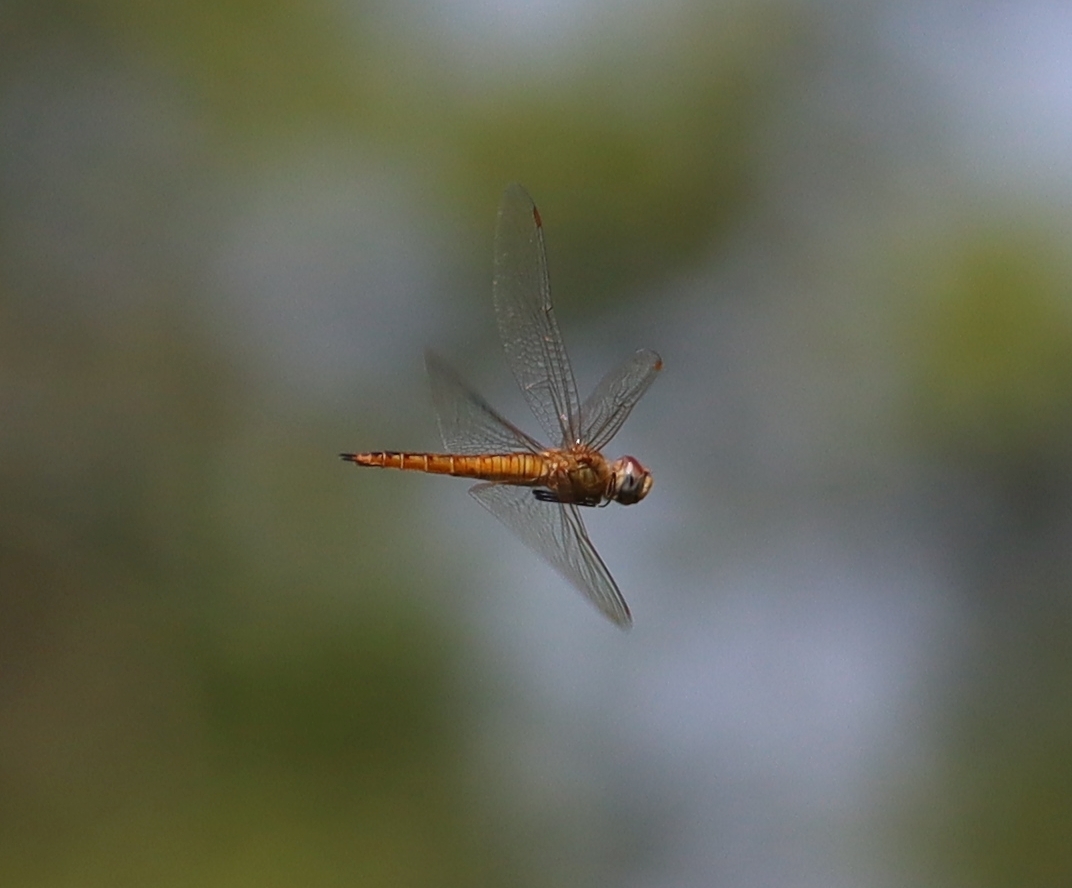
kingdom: Animalia
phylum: Arthropoda
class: Insecta
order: Odonata
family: Libellulidae
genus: Pantala
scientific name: Pantala flavescens
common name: Wandering glider
